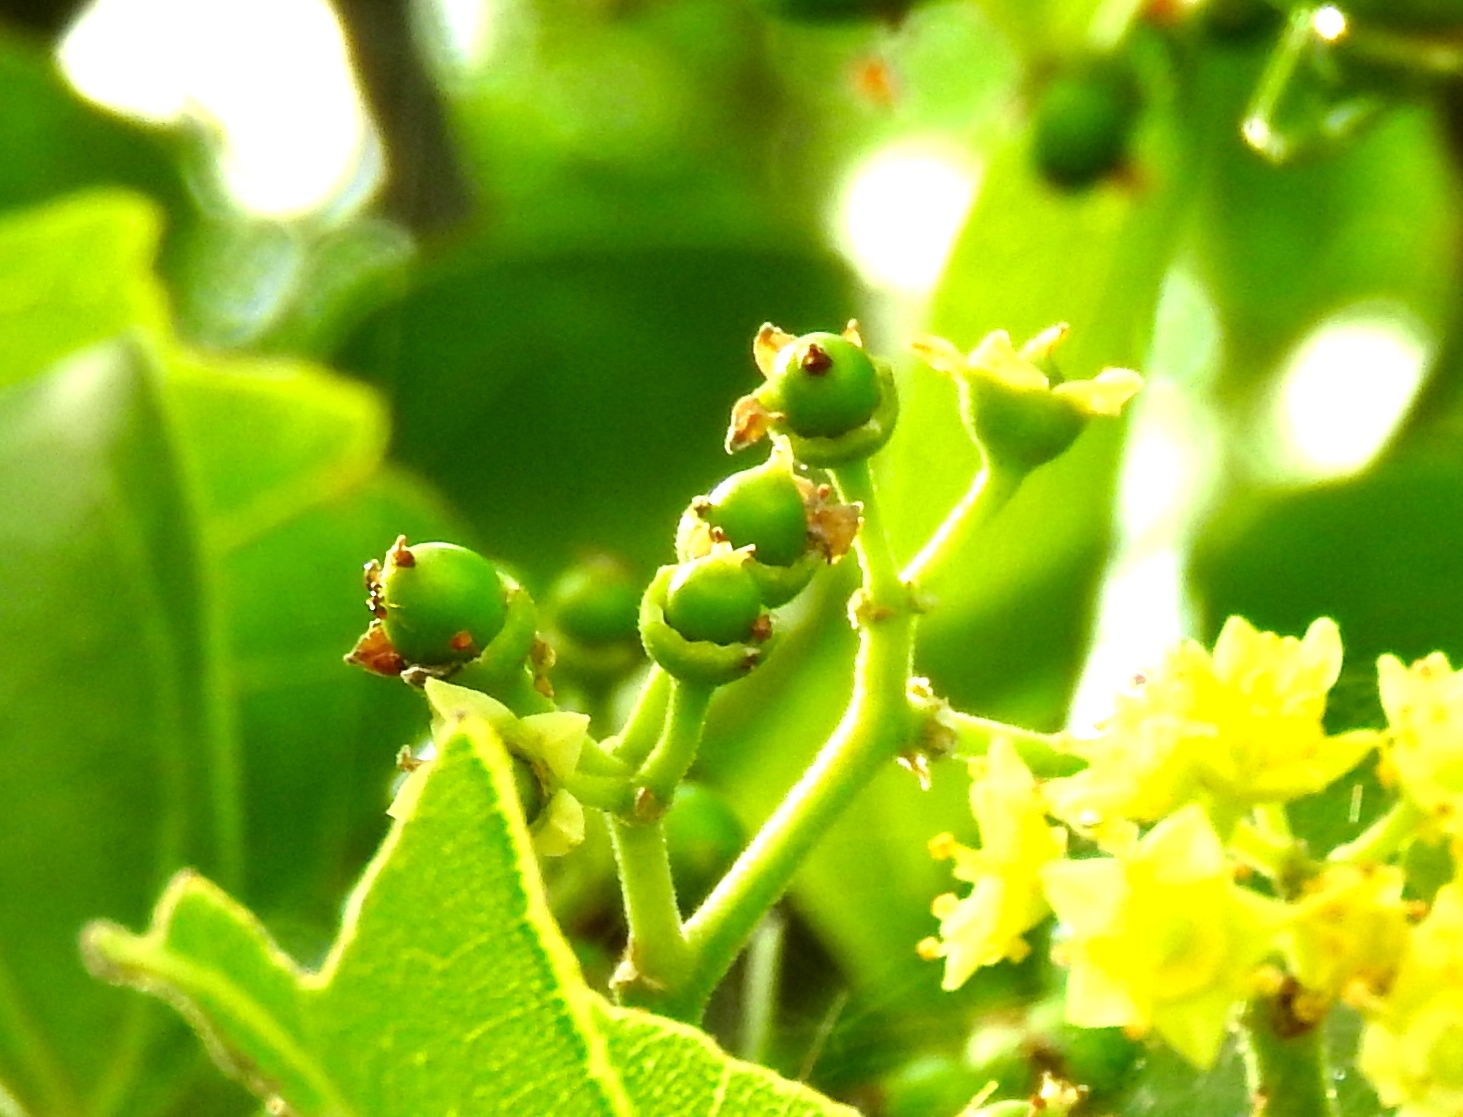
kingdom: Plantae
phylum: Tracheophyta
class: Magnoliopsida
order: Rosales
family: Rhamnaceae
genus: Sarcomphalus
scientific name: Sarcomphalus amole
